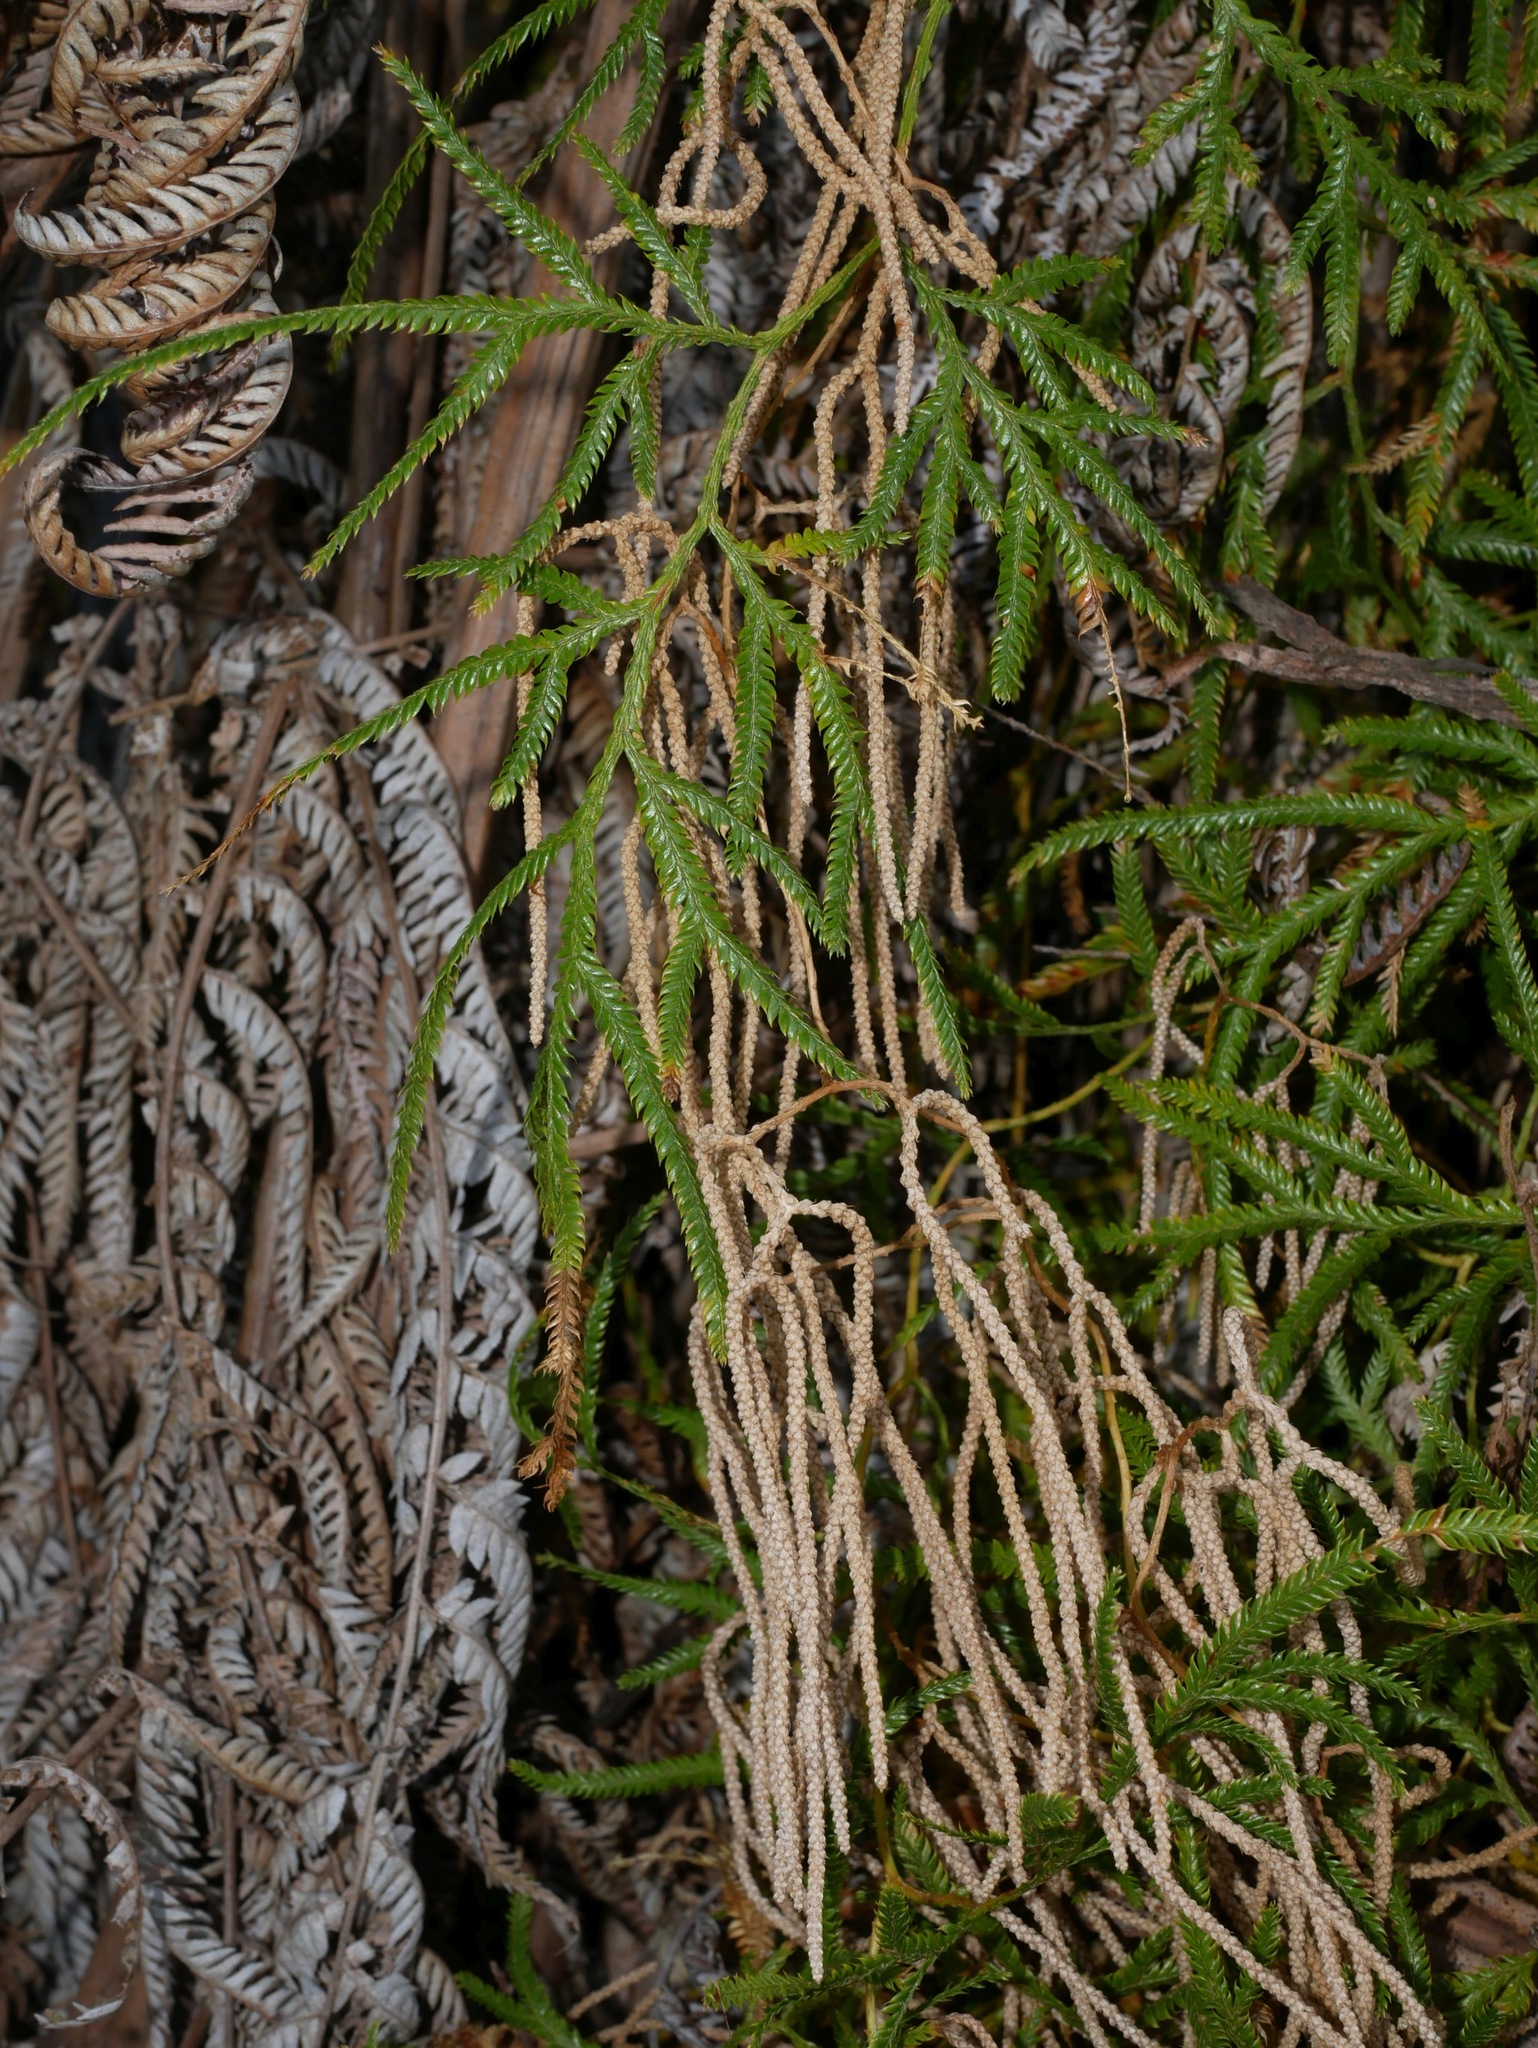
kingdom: Plantae
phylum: Tracheophyta
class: Lycopodiopsida
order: Lycopodiales
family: Lycopodiaceae
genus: Lycopodium
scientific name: Lycopodium volubile
